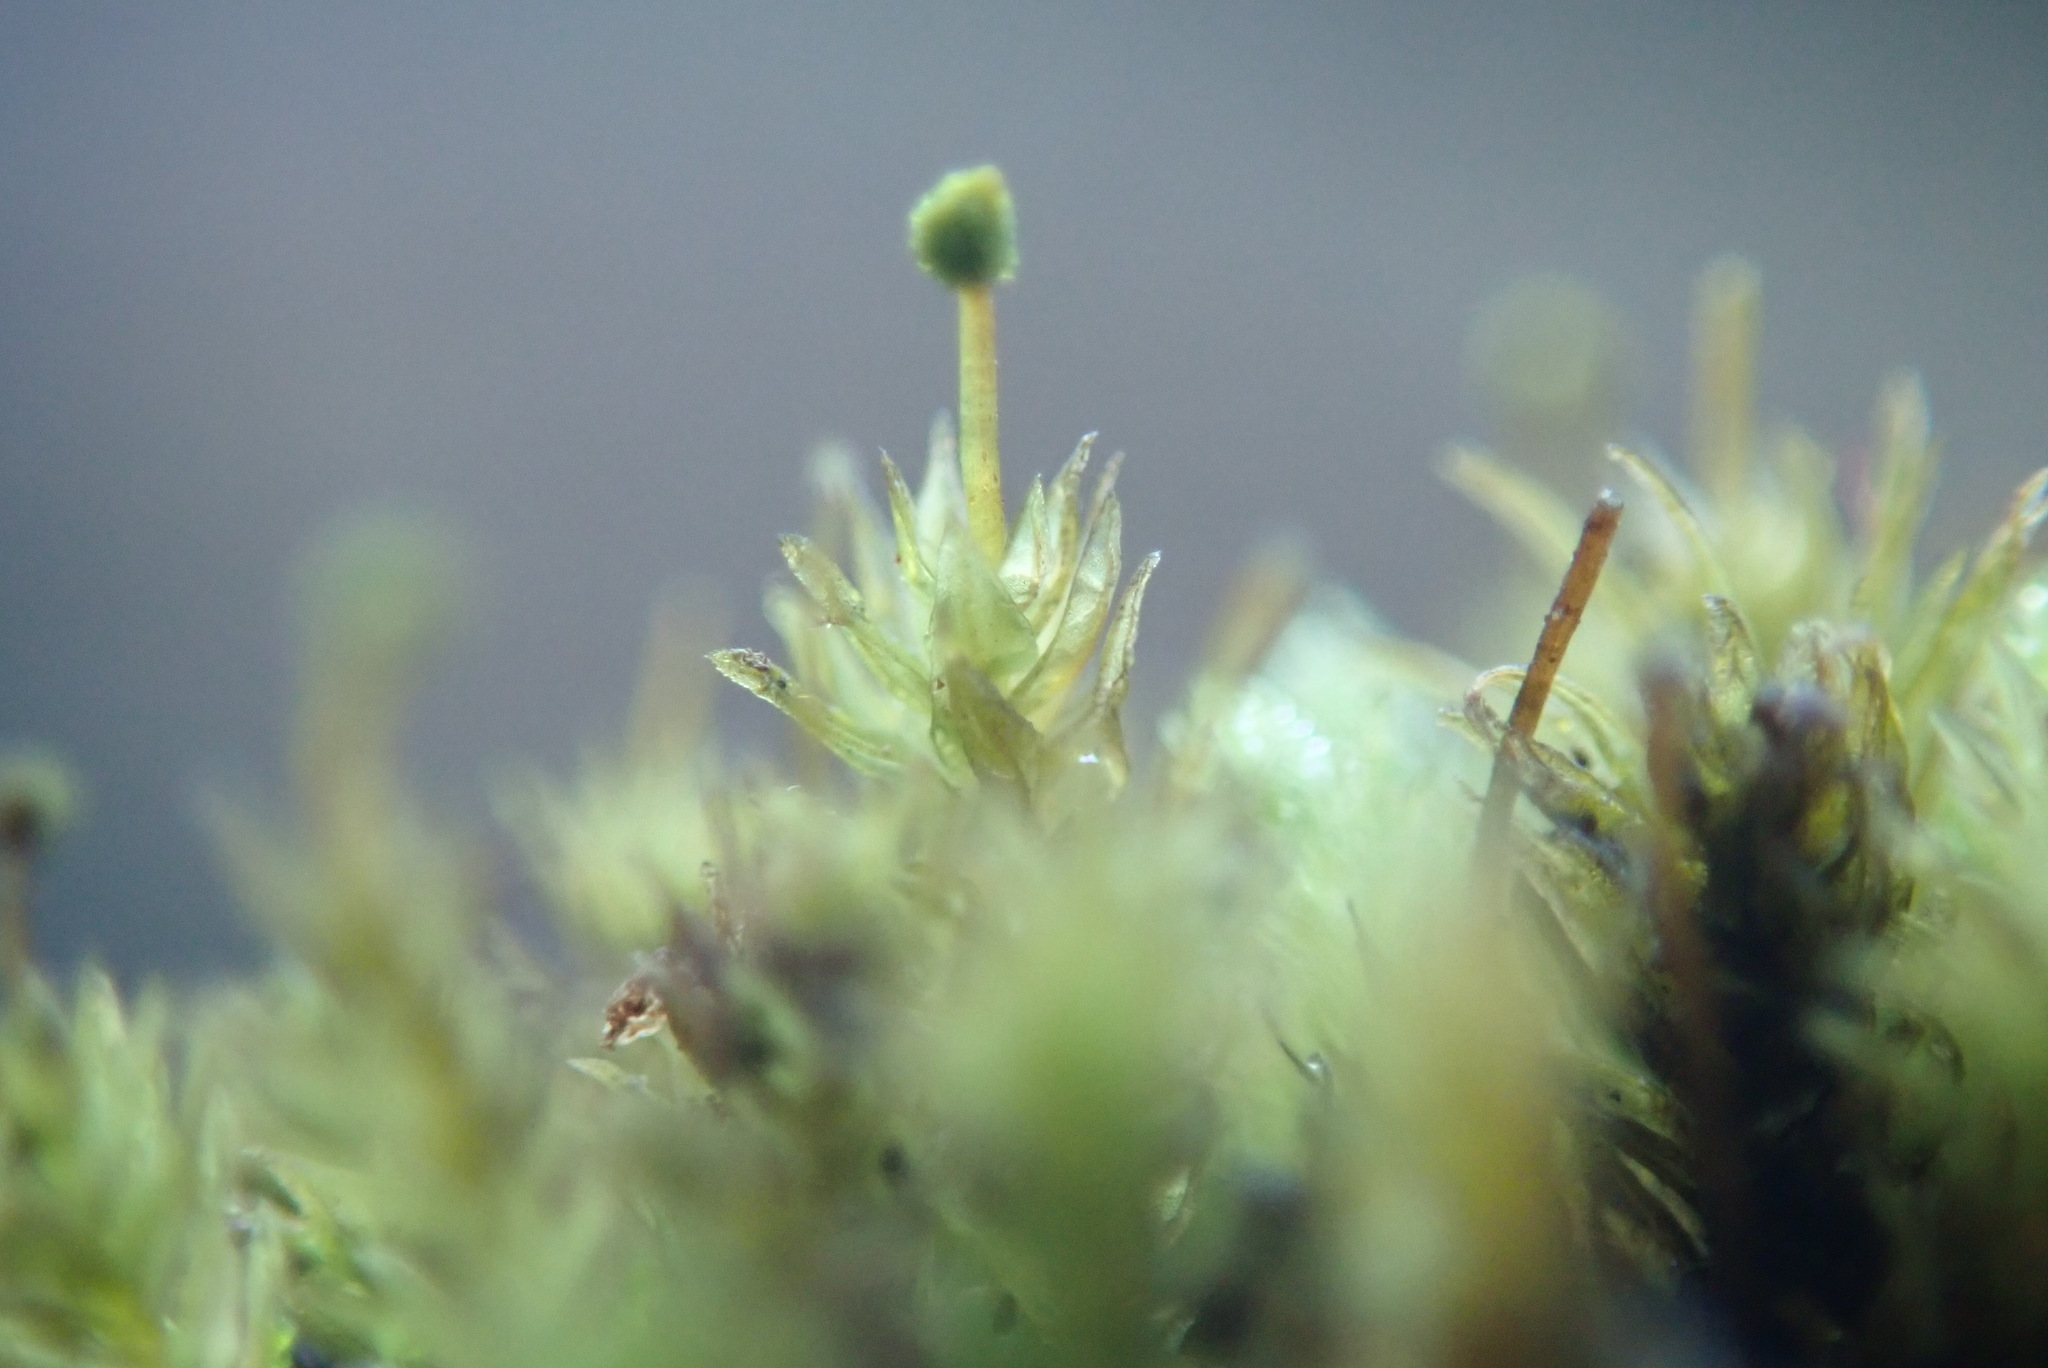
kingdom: Plantae
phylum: Bryophyta
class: Bryopsida
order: Aulacomniales
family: Aulacomniaceae
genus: Aulacomnium
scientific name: Aulacomnium androgynum
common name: Little groove moss
